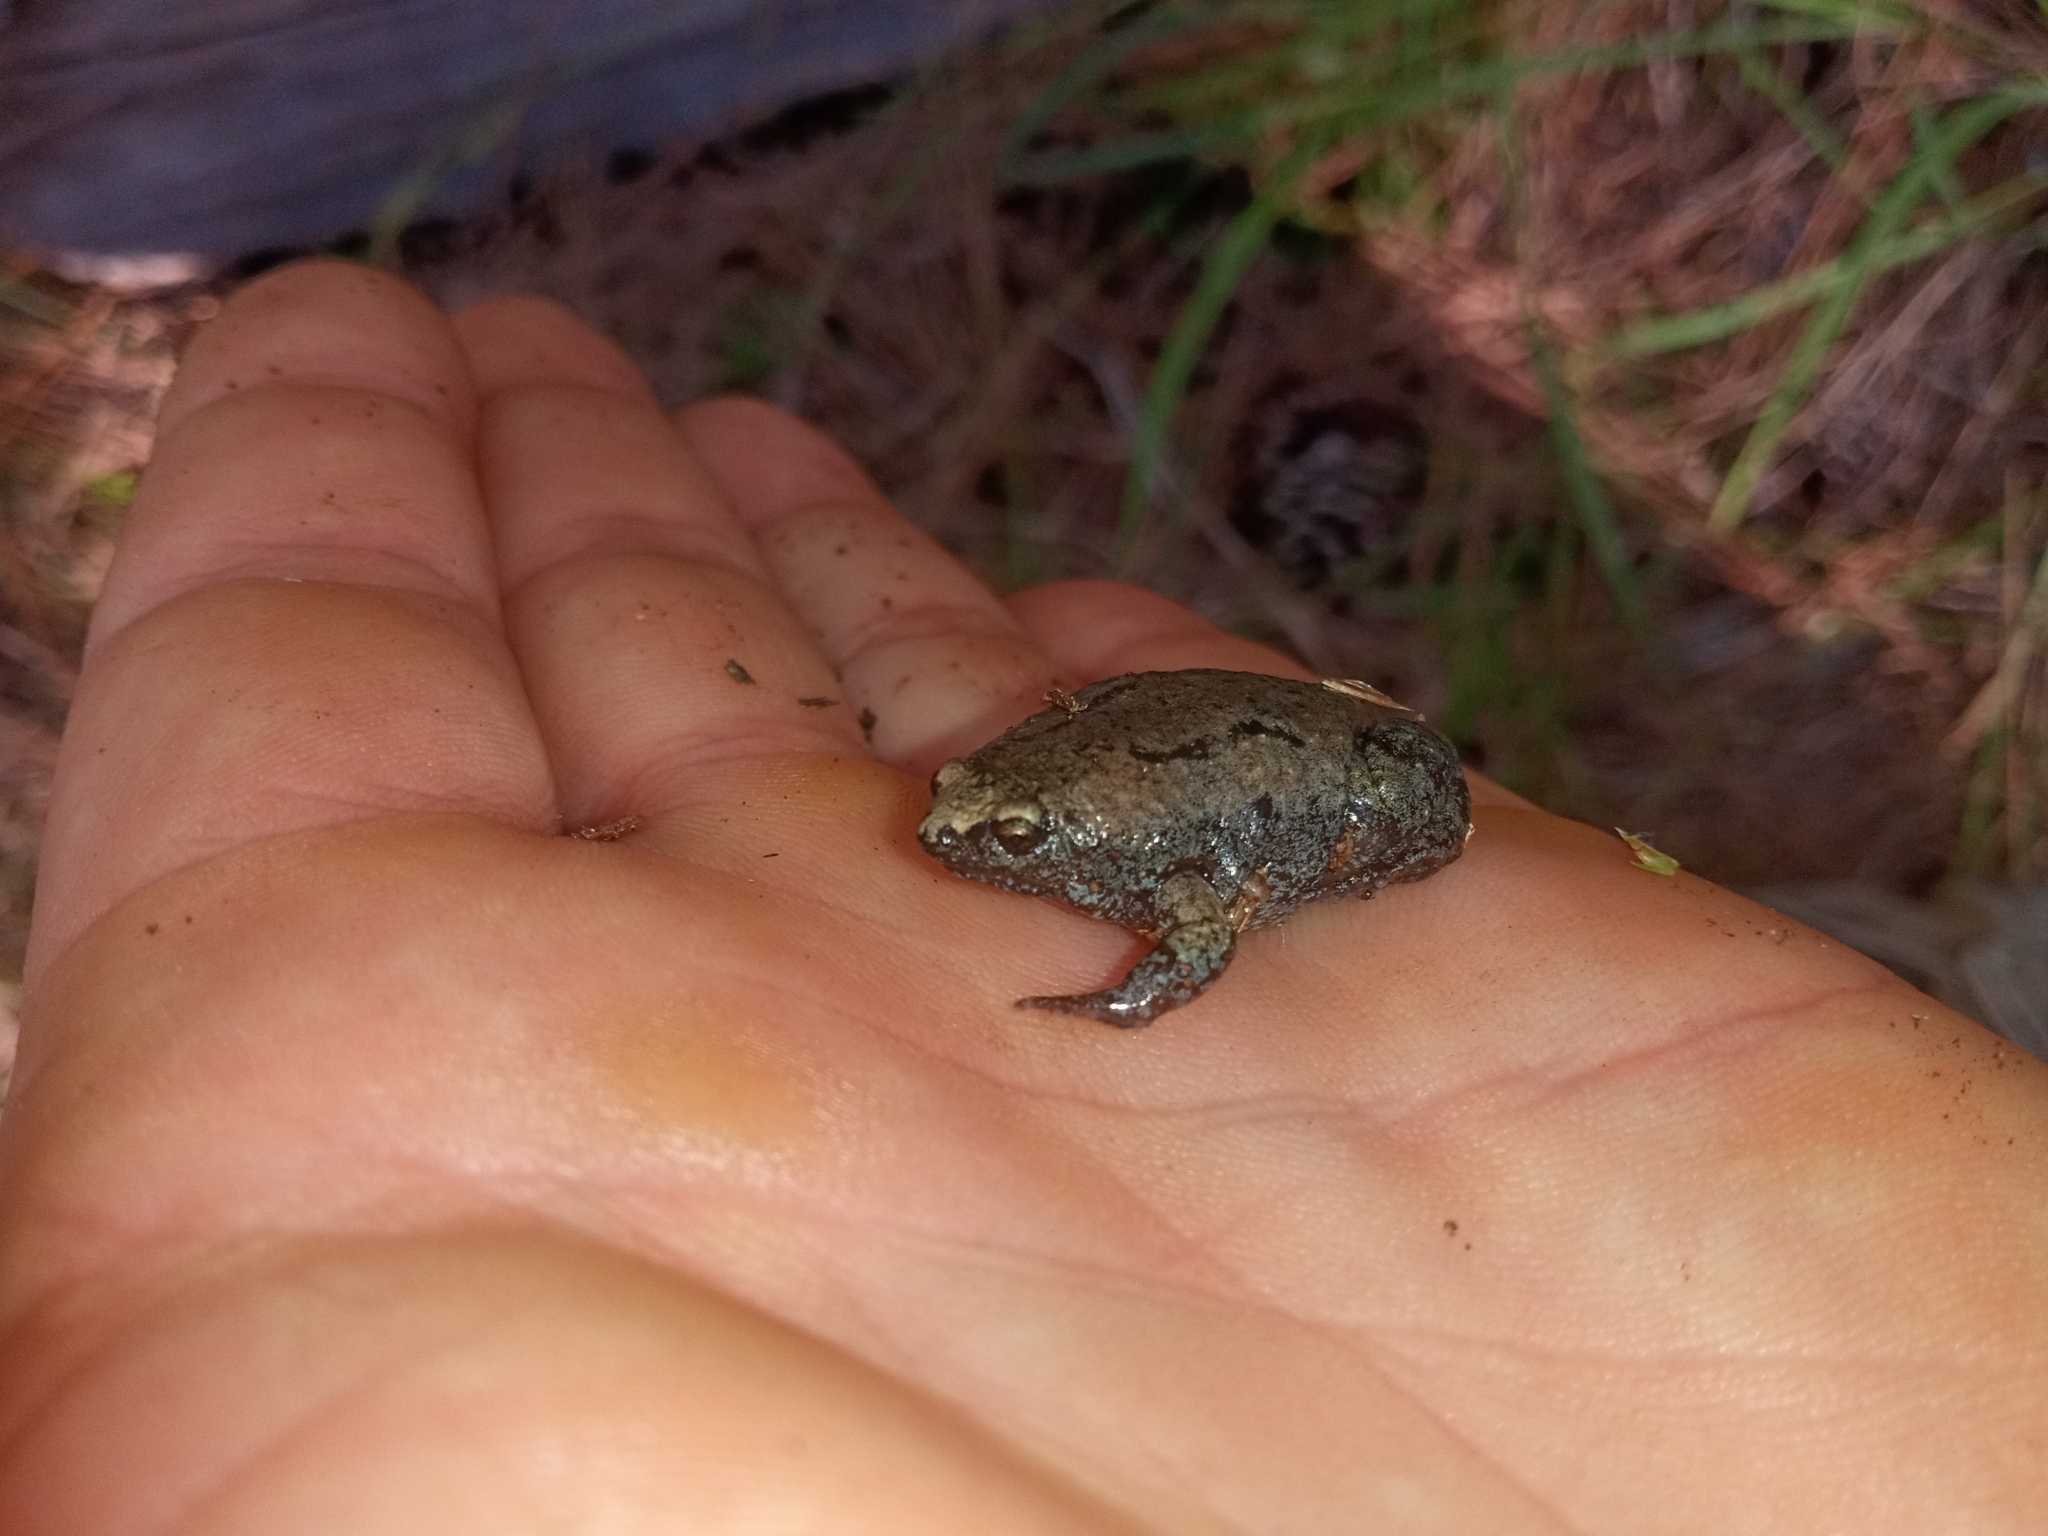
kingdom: Animalia
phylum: Chordata
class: Amphibia
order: Anura
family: Microhylidae
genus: Gastrophryne
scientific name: Gastrophryne carolinensis
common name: Eastern narrowmouth toad
